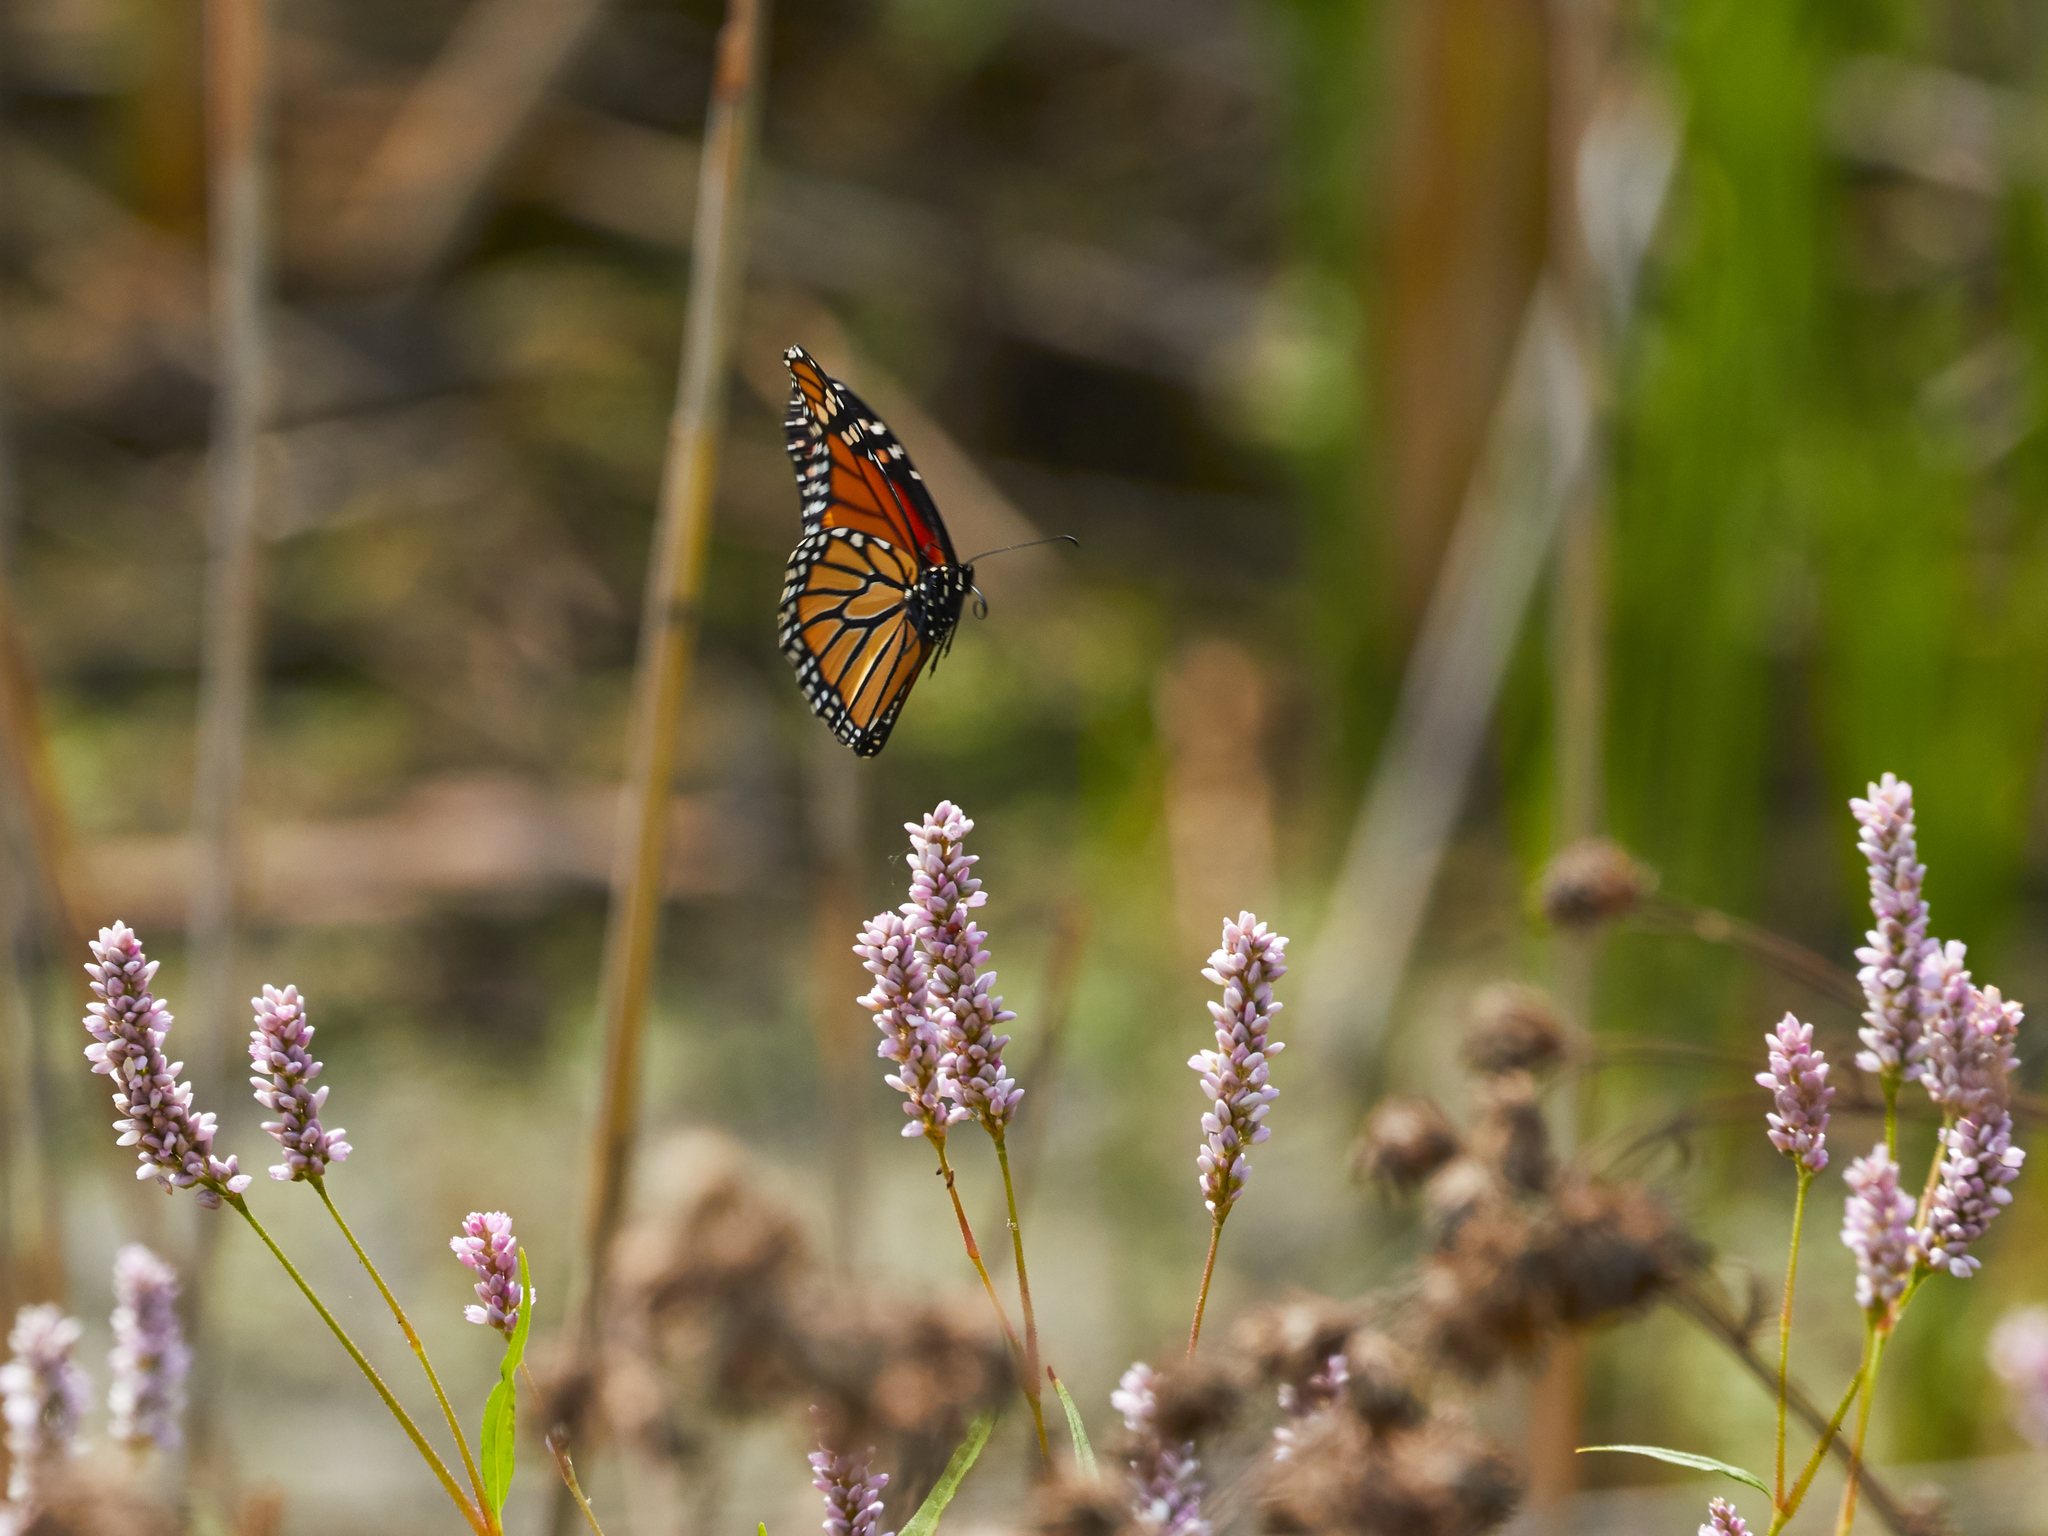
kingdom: Animalia
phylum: Arthropoda
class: Insecta
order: Lepidoptera
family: Nymphalidae
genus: Danaus
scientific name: Danaus plexippus
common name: Monarch
